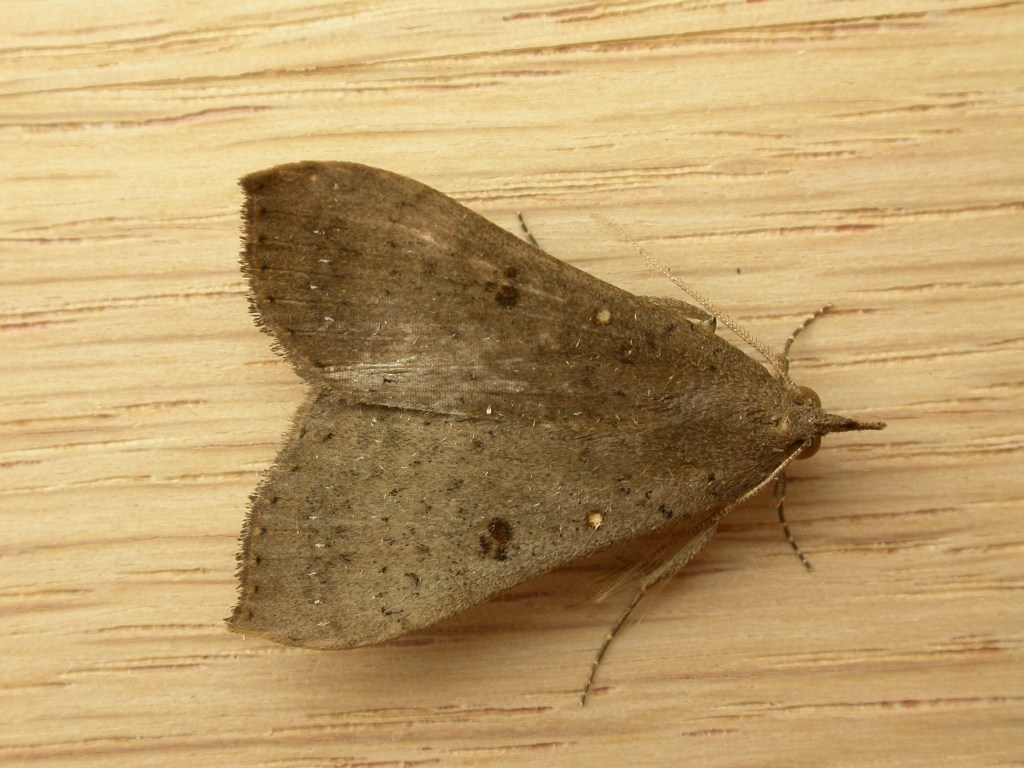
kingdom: Animalia
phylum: Arthropoda
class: Insecta
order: Lepidoptera
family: Erebidae
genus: Rhapsa
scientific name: Rhapsa suscitatalis
